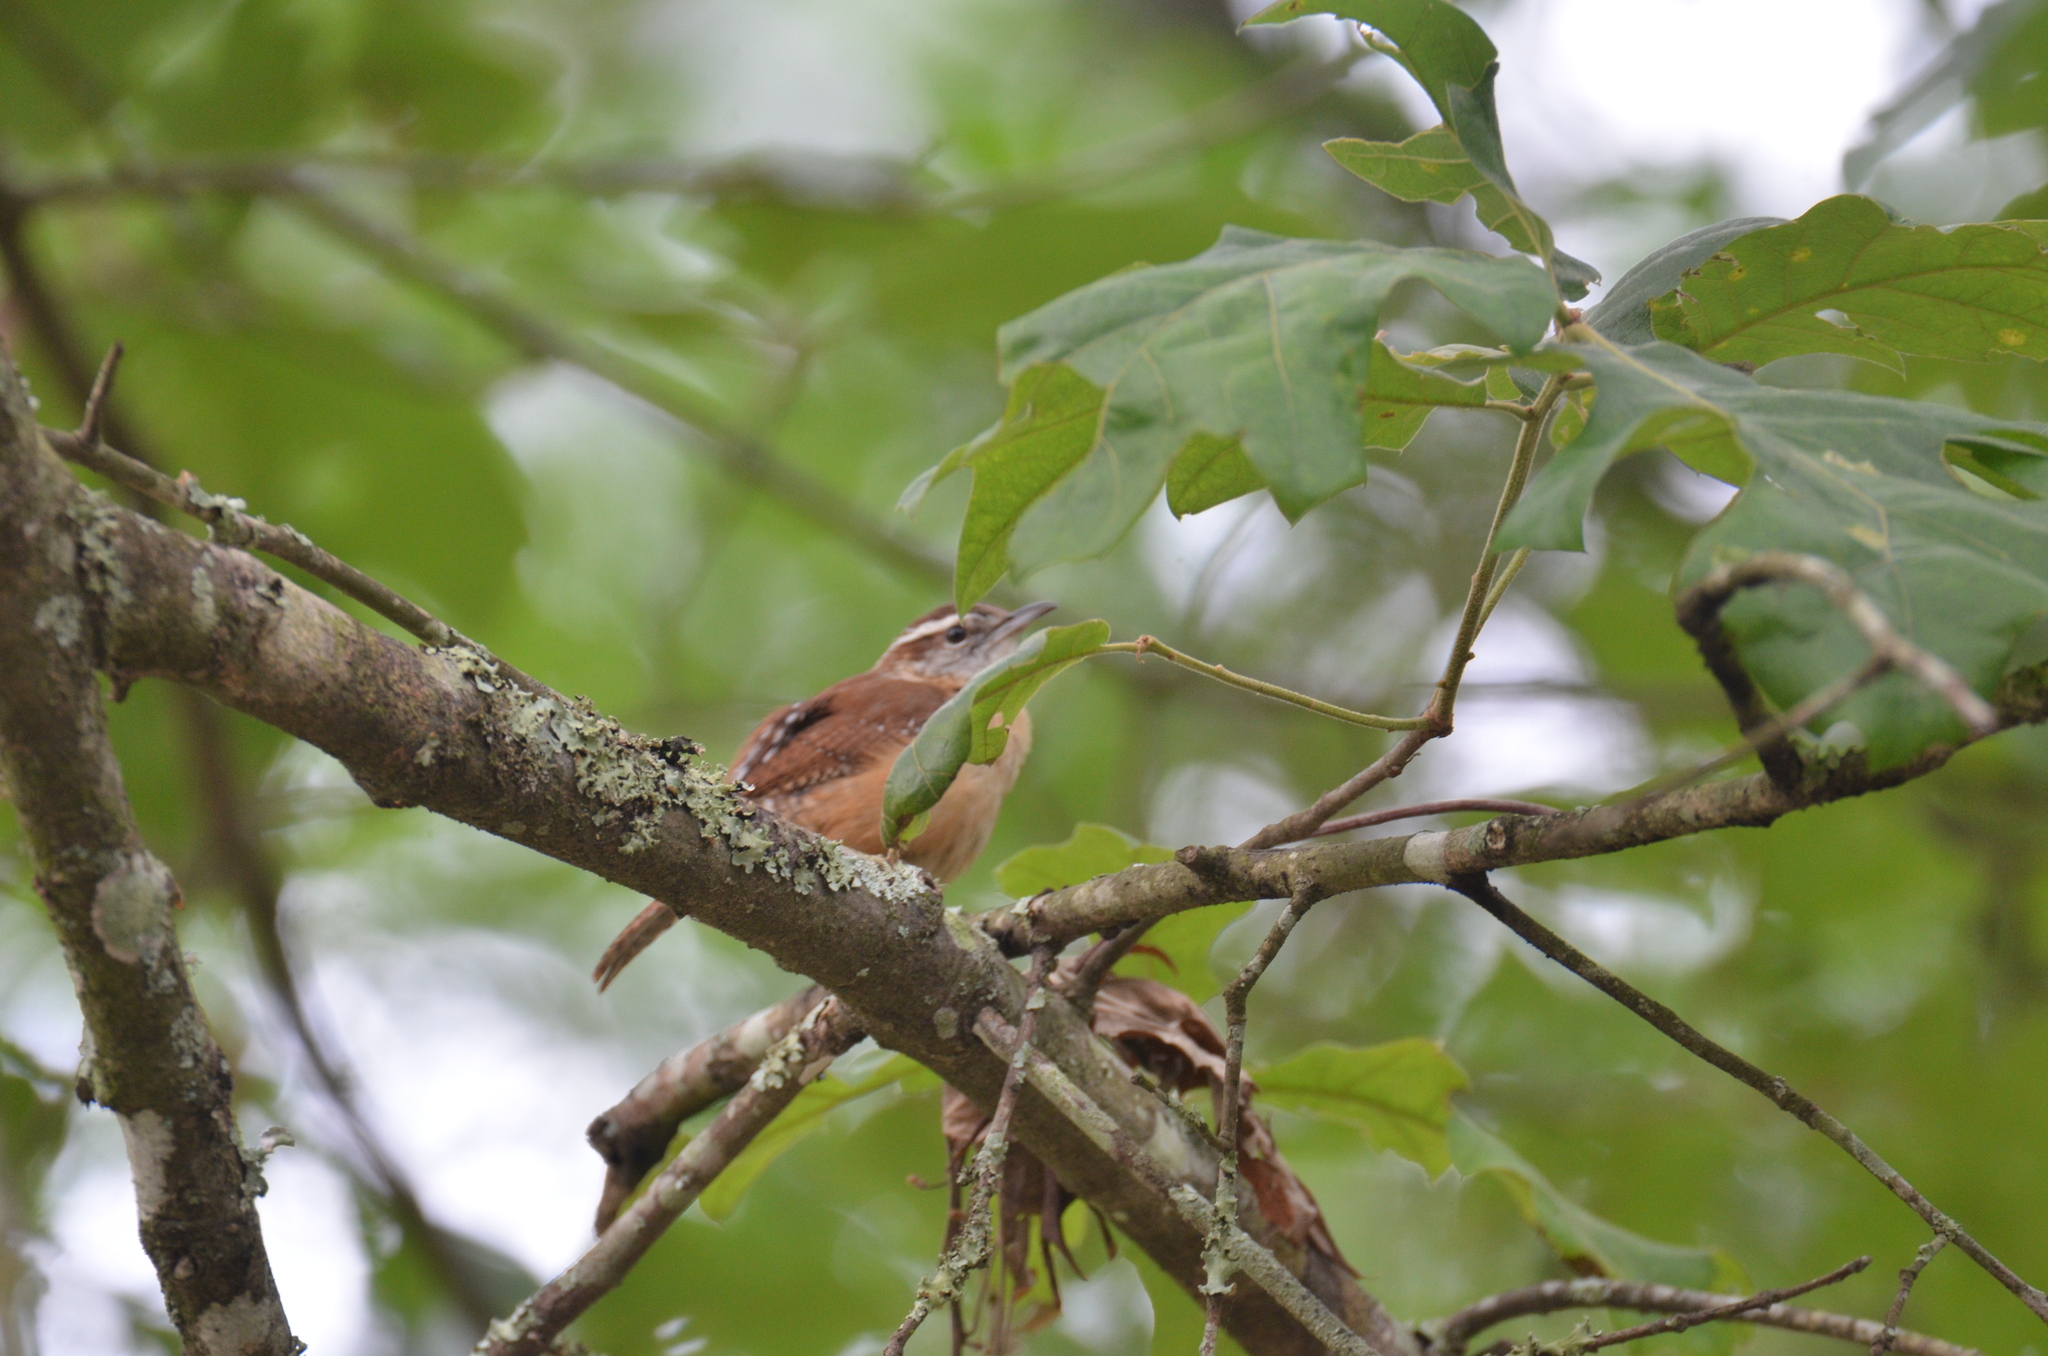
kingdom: Animalia
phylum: Chordata
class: Aves
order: Passeriformes
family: Troglodytidae
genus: Thryothorus
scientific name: Thryothorus ludovicianus
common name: Carolina wren
